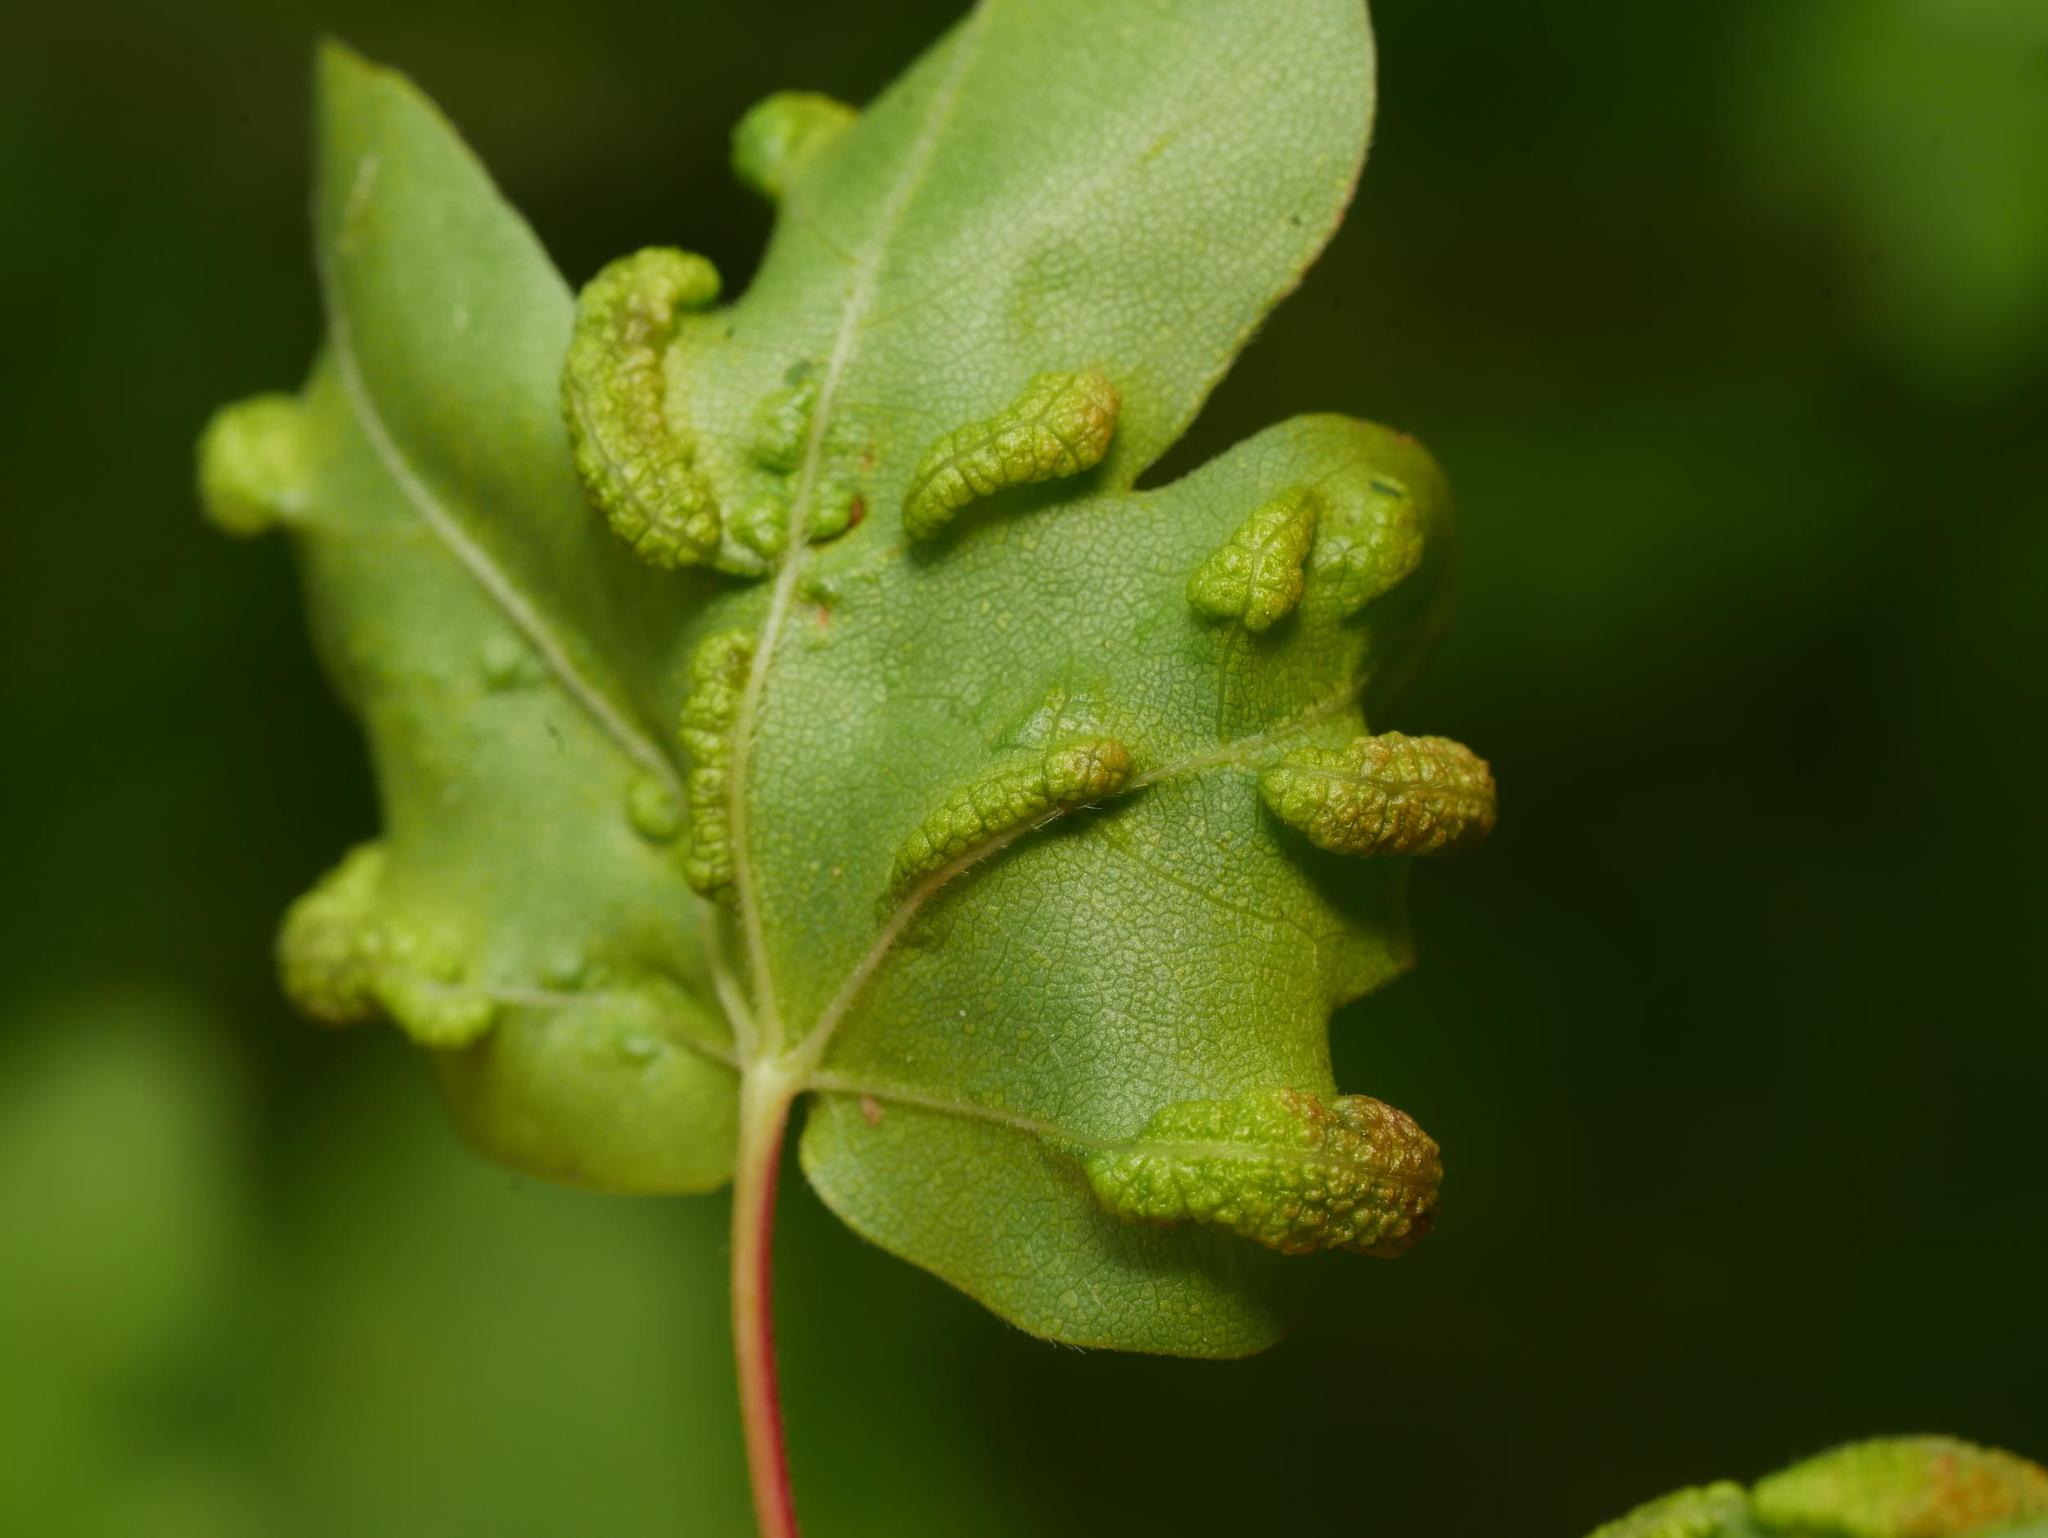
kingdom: Animalia
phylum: Arthropoda
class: Arachnida
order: Trombidiformes
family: Eriophyidae
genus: Aceria
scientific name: Aceria carinifex
